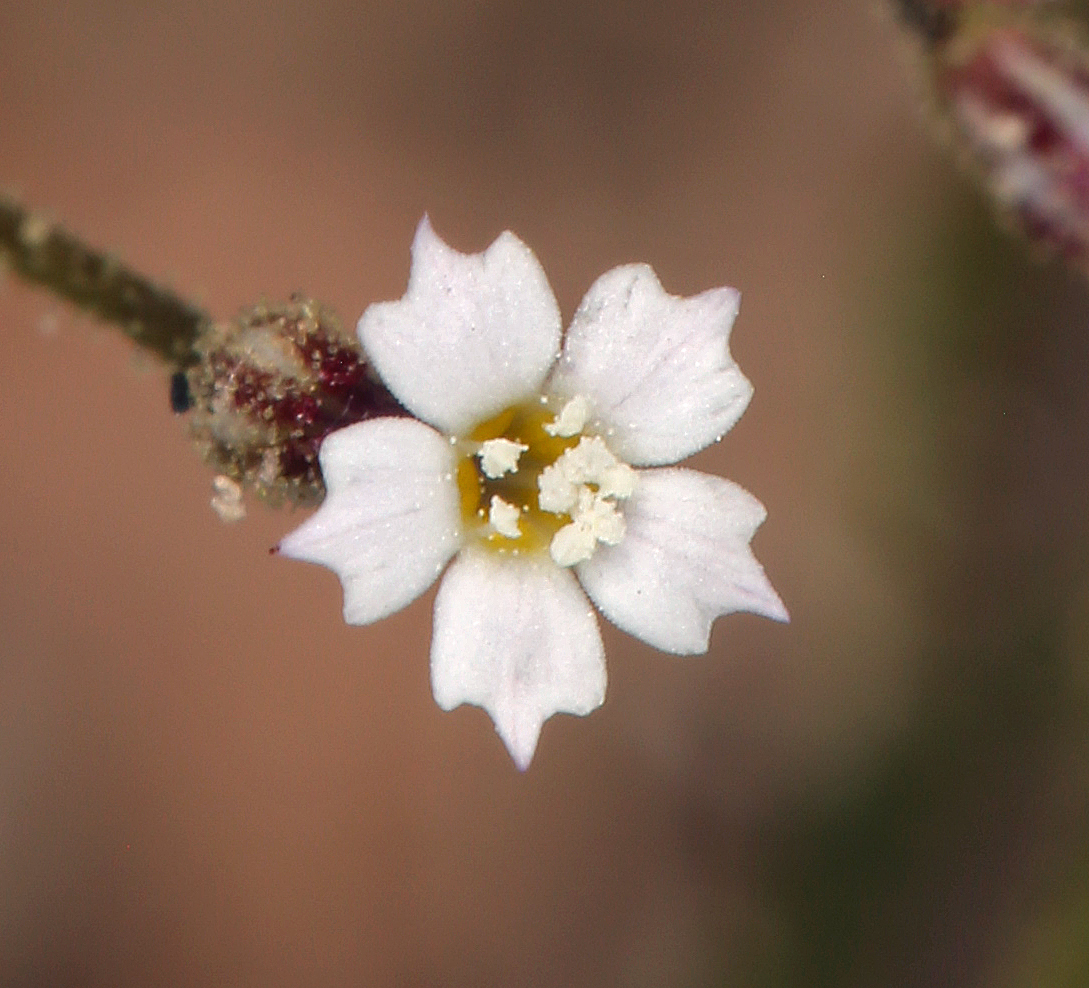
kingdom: Plantae
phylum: Tracheophyta
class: Magnoliopsida
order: Ericales
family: Polemoniaceae
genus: Aliciella
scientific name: Aliciella leptomeria
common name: Sand gilia
